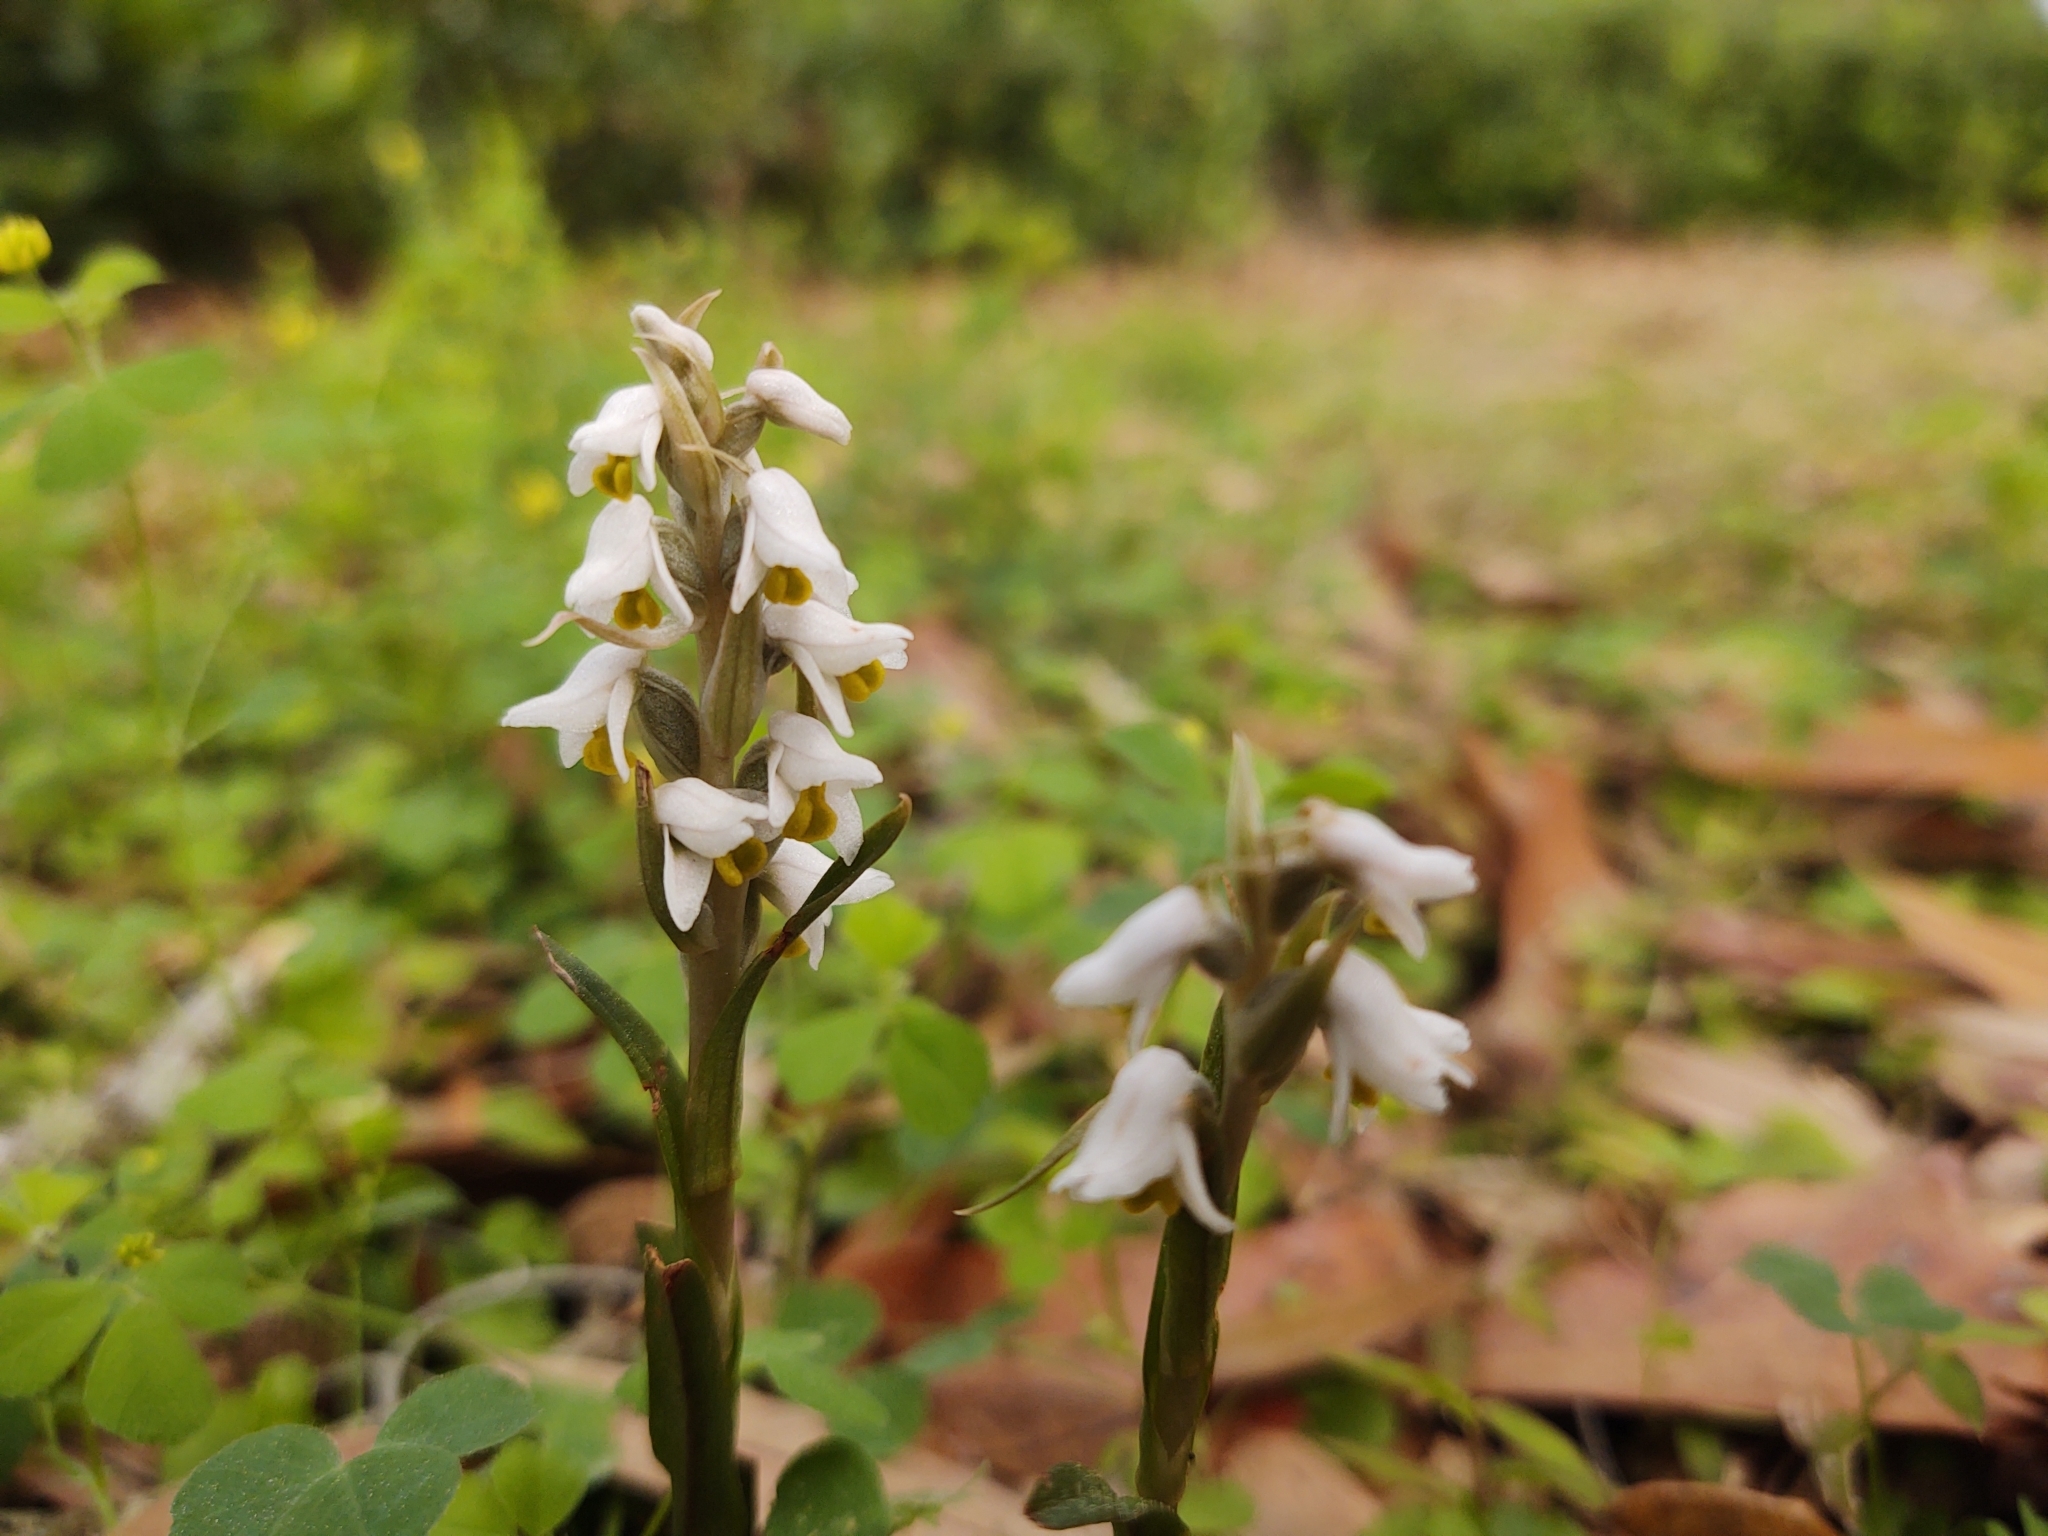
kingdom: Plantae
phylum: Tracheophyta
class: Liliopsida
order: Asparagales
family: Orchidaceae
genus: Zeuxine
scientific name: Zeuxine strateumatica
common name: Soldier's orchid
